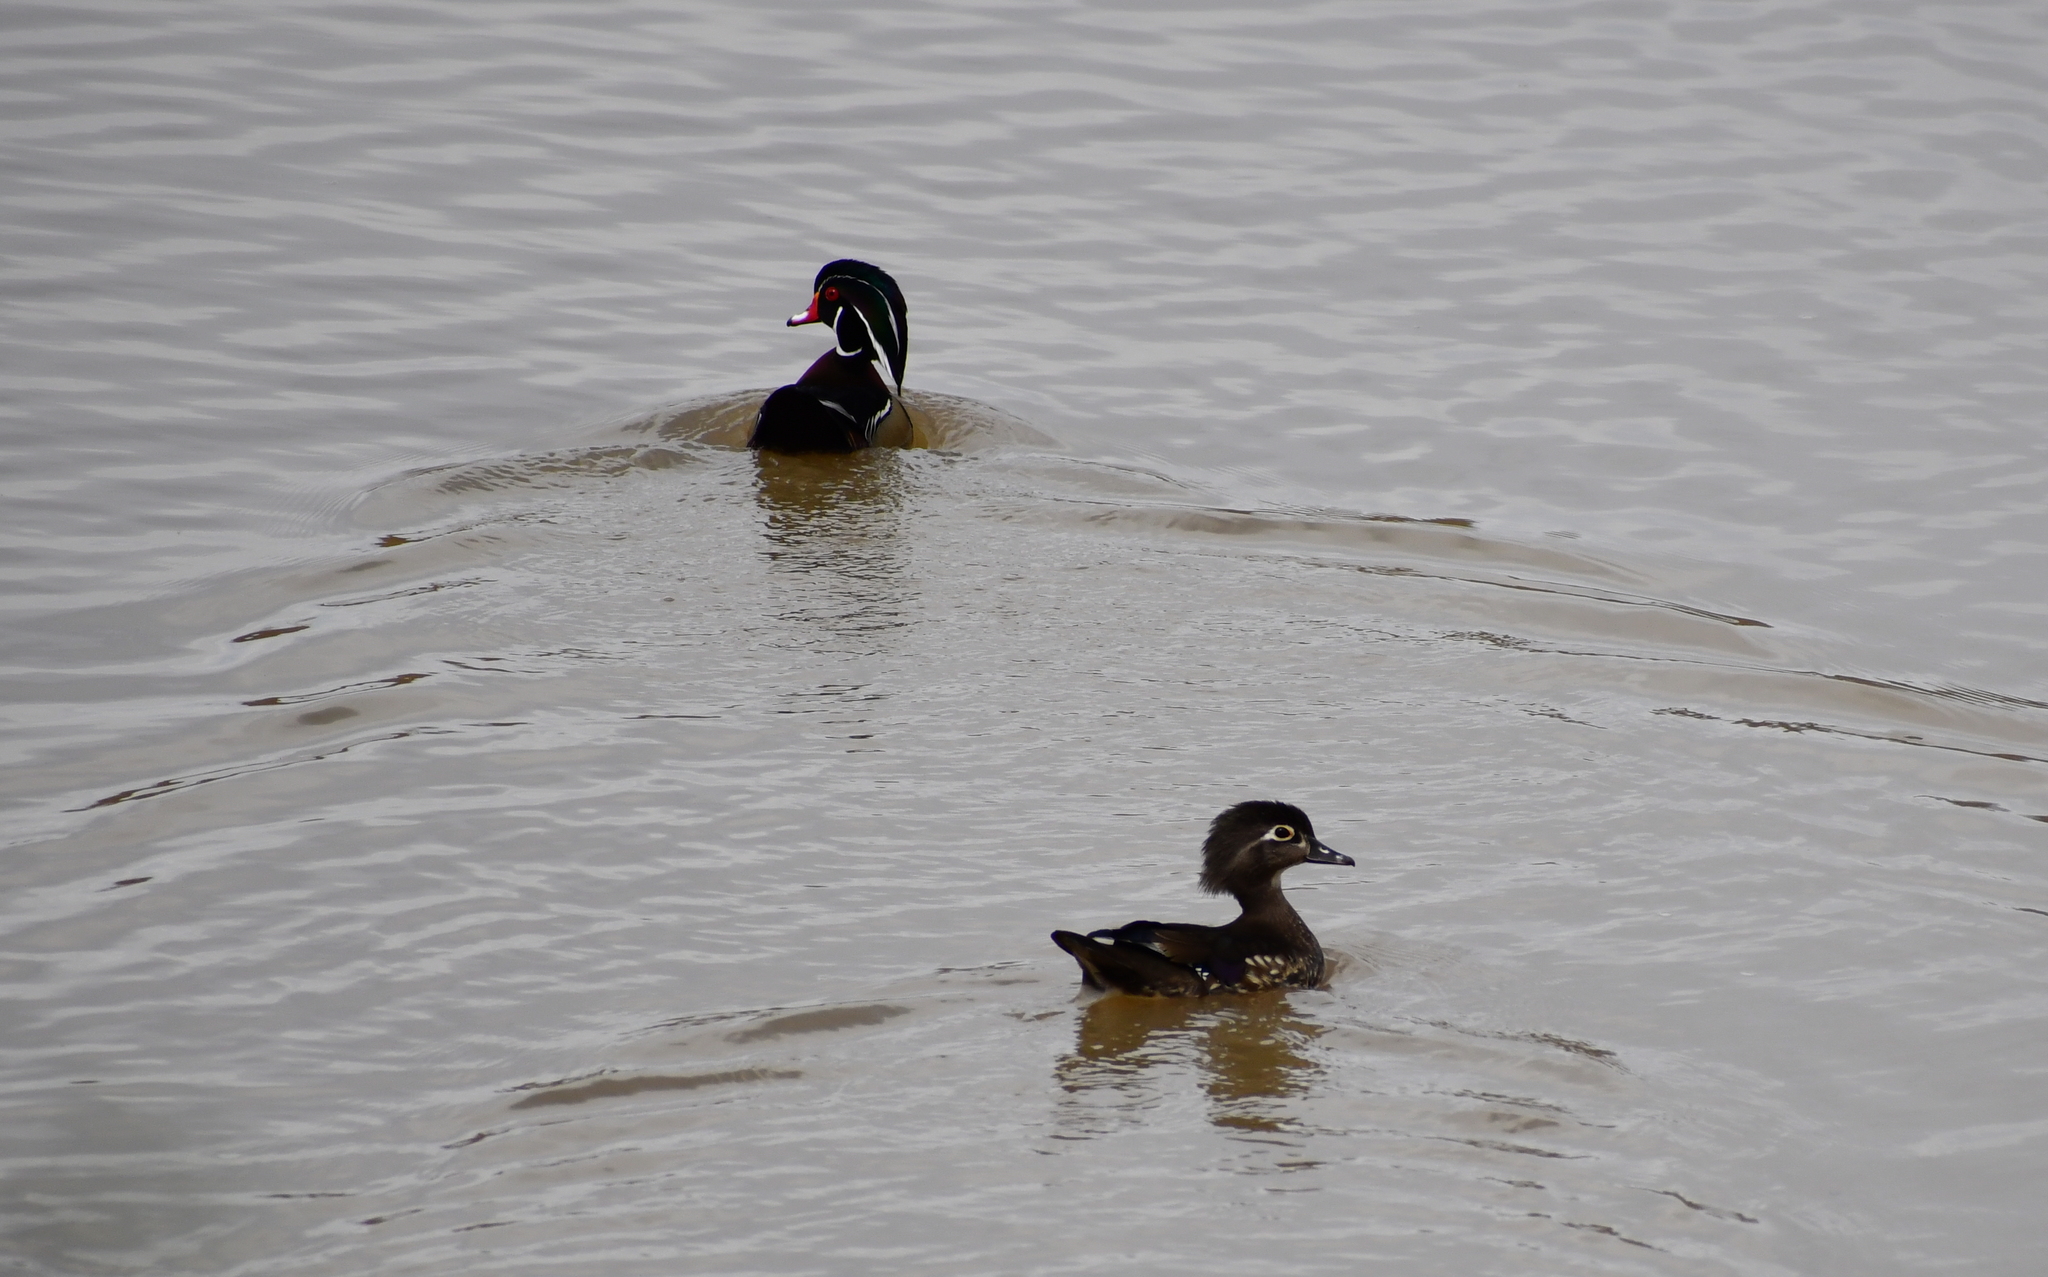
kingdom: Animalia
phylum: Chordata
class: Aves
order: Anseriformes
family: Anatidae
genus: Aix
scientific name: Aix sponsa
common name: Wood duck
